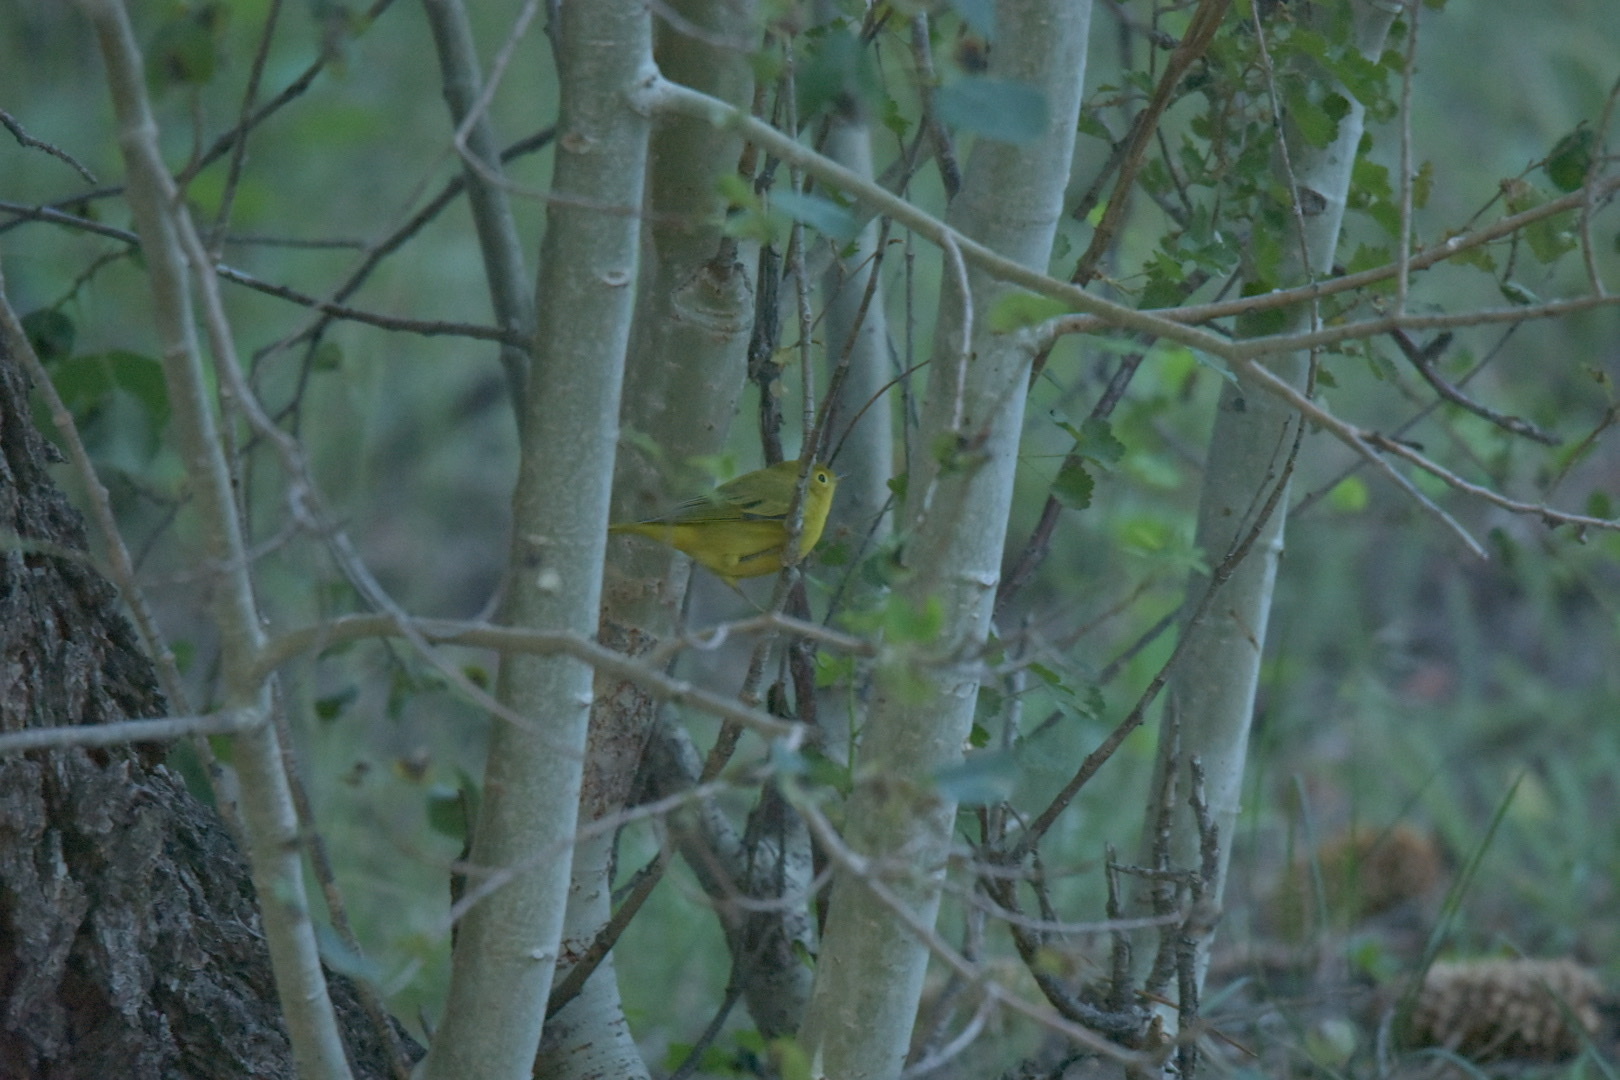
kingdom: Animalia
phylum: Chordata
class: Aves
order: Passeriformes
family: Parulidae
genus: Setophaga
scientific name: Setophaga petechia
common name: Yellow warbler
